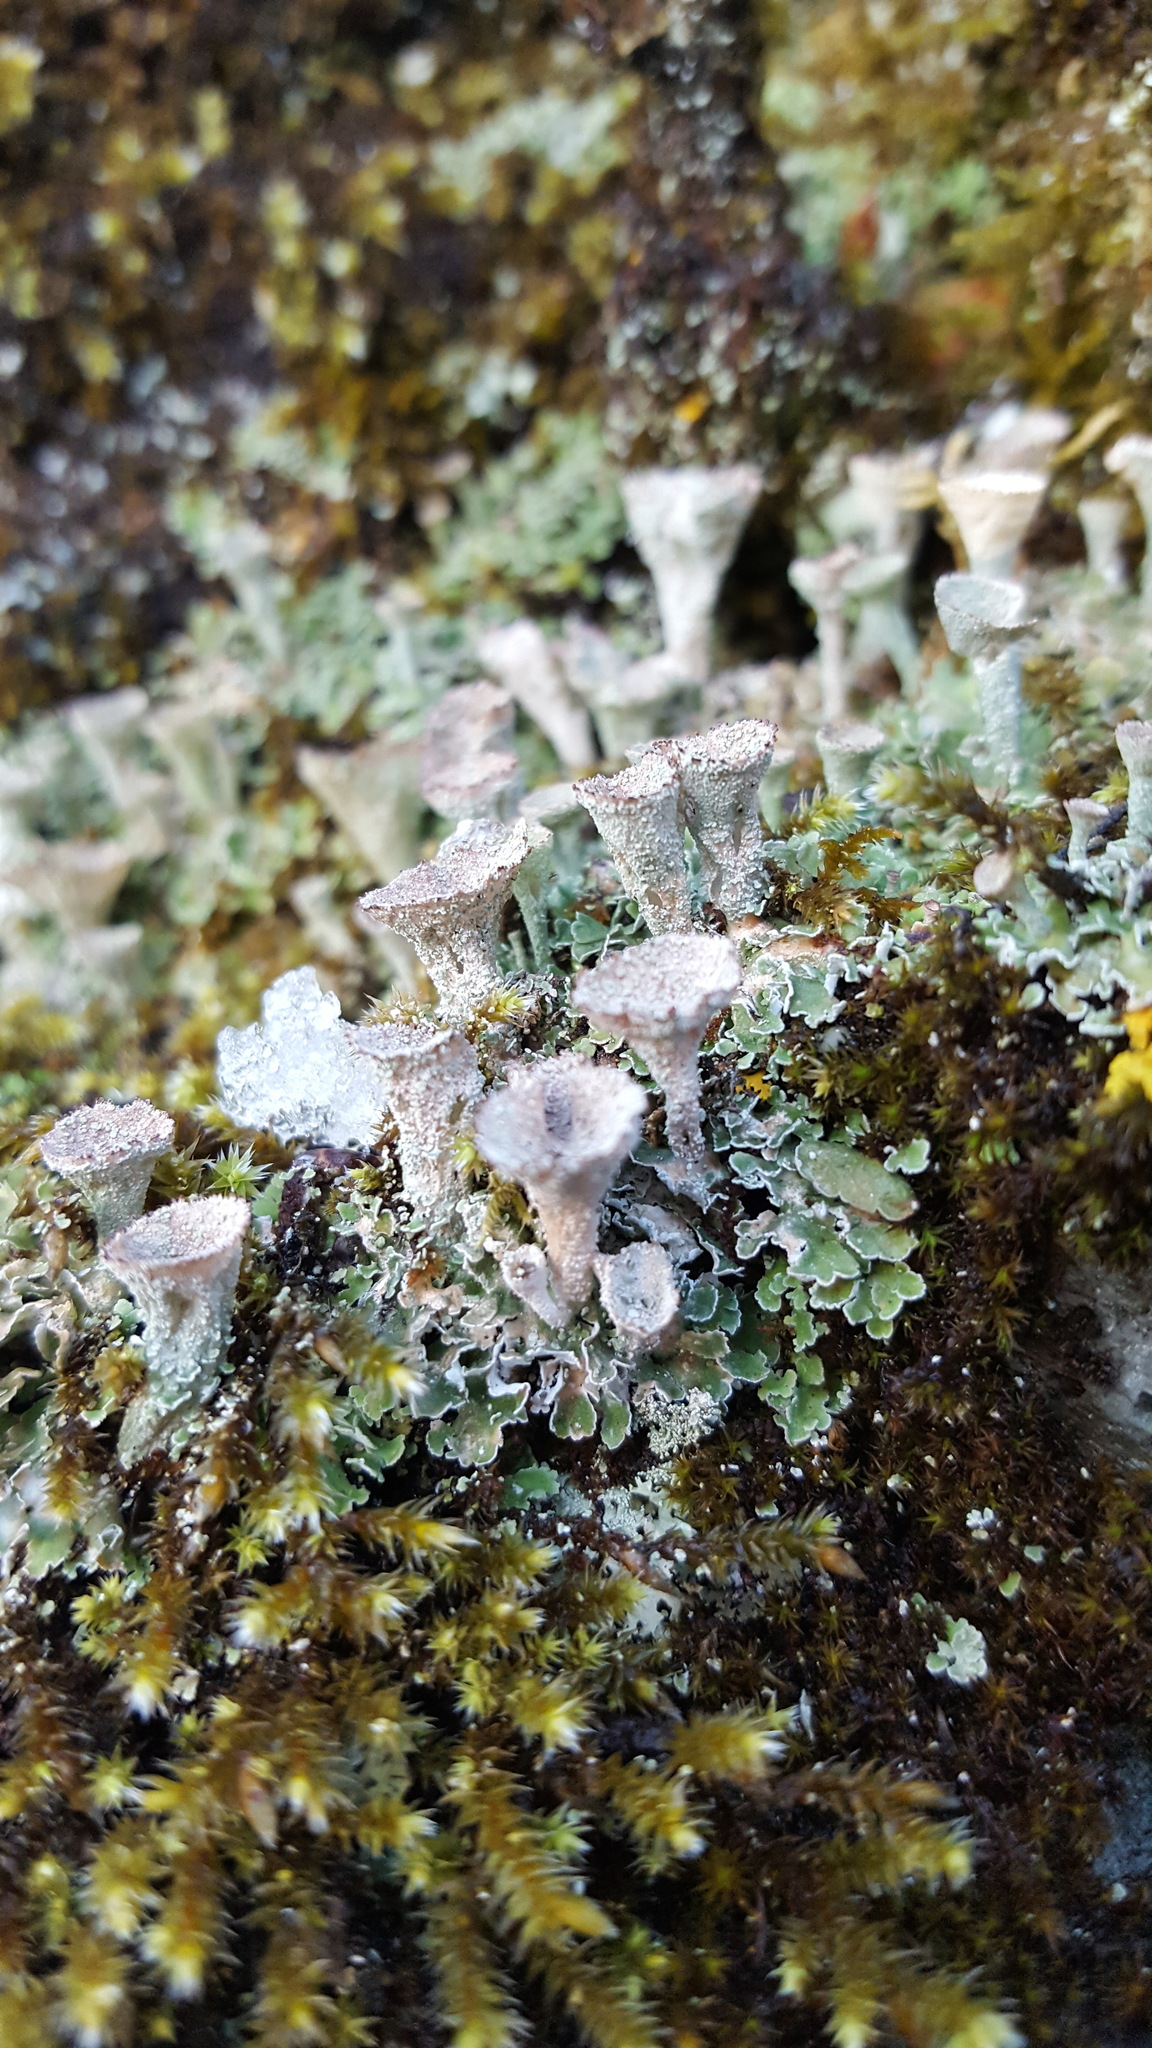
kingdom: Fungi
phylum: Ascomycota
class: Lecanoromycetes
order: Lecanorales
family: Cladoniaceae
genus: Cladonia
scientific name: Cladonia chlorophaea
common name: Mealy pixie cup
